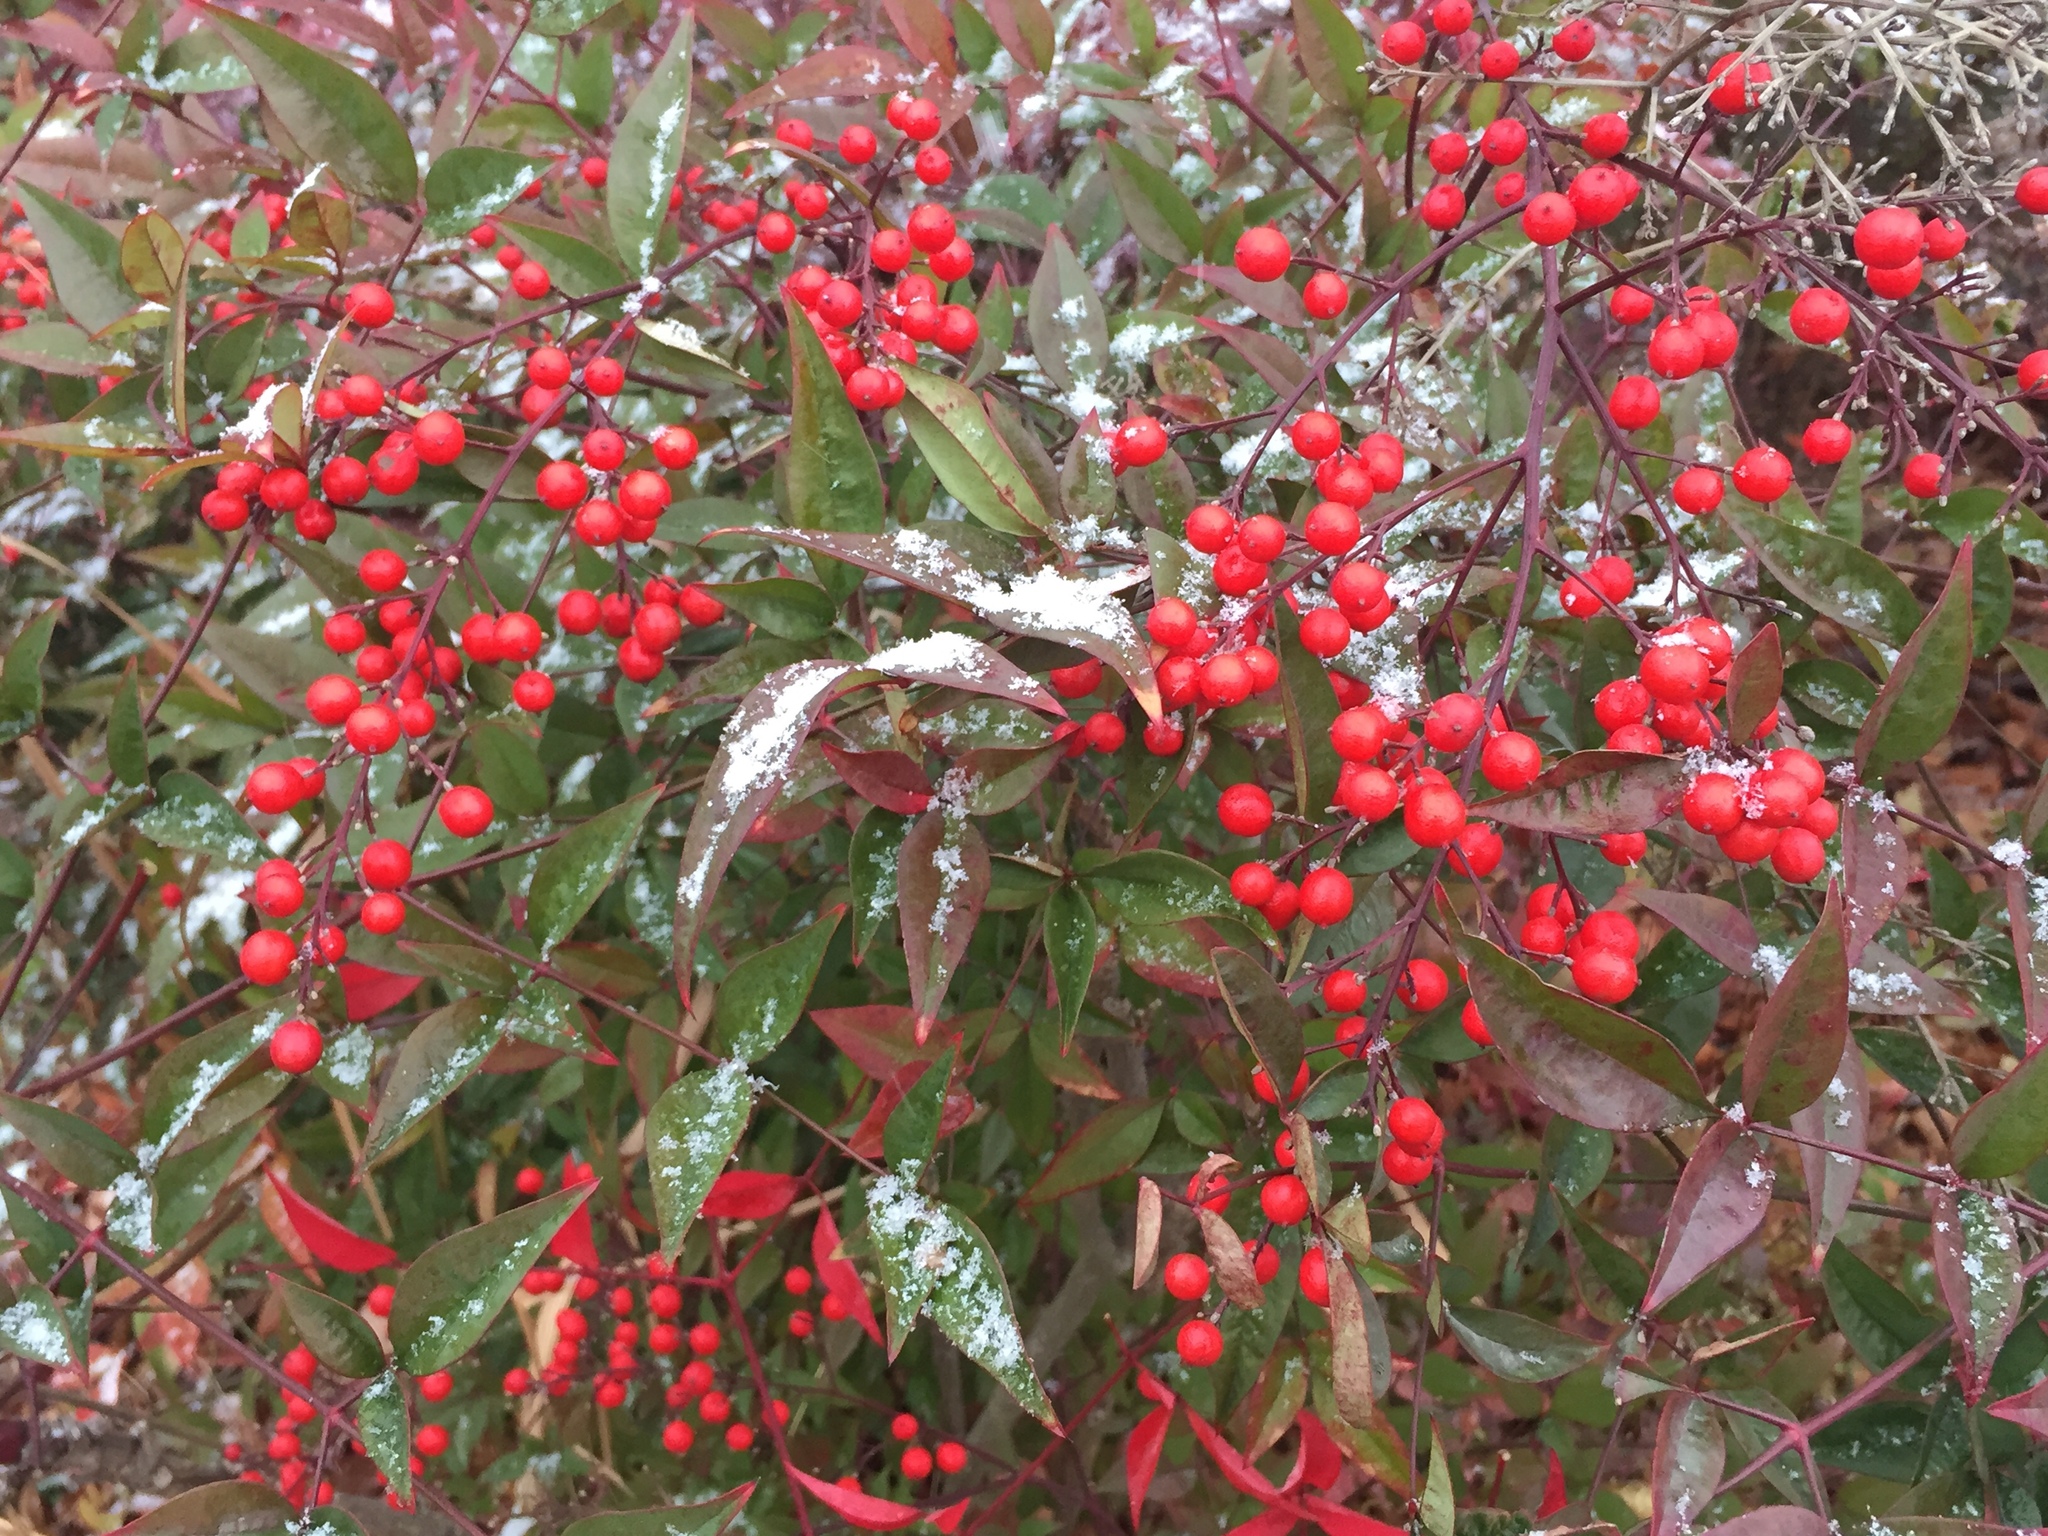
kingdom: Plantae
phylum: Tracheophyta
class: Magnoliopsida
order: Ranunculales
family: Berberidaceae
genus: Nandina
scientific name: Nandina domestica
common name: Sacred bamboo
